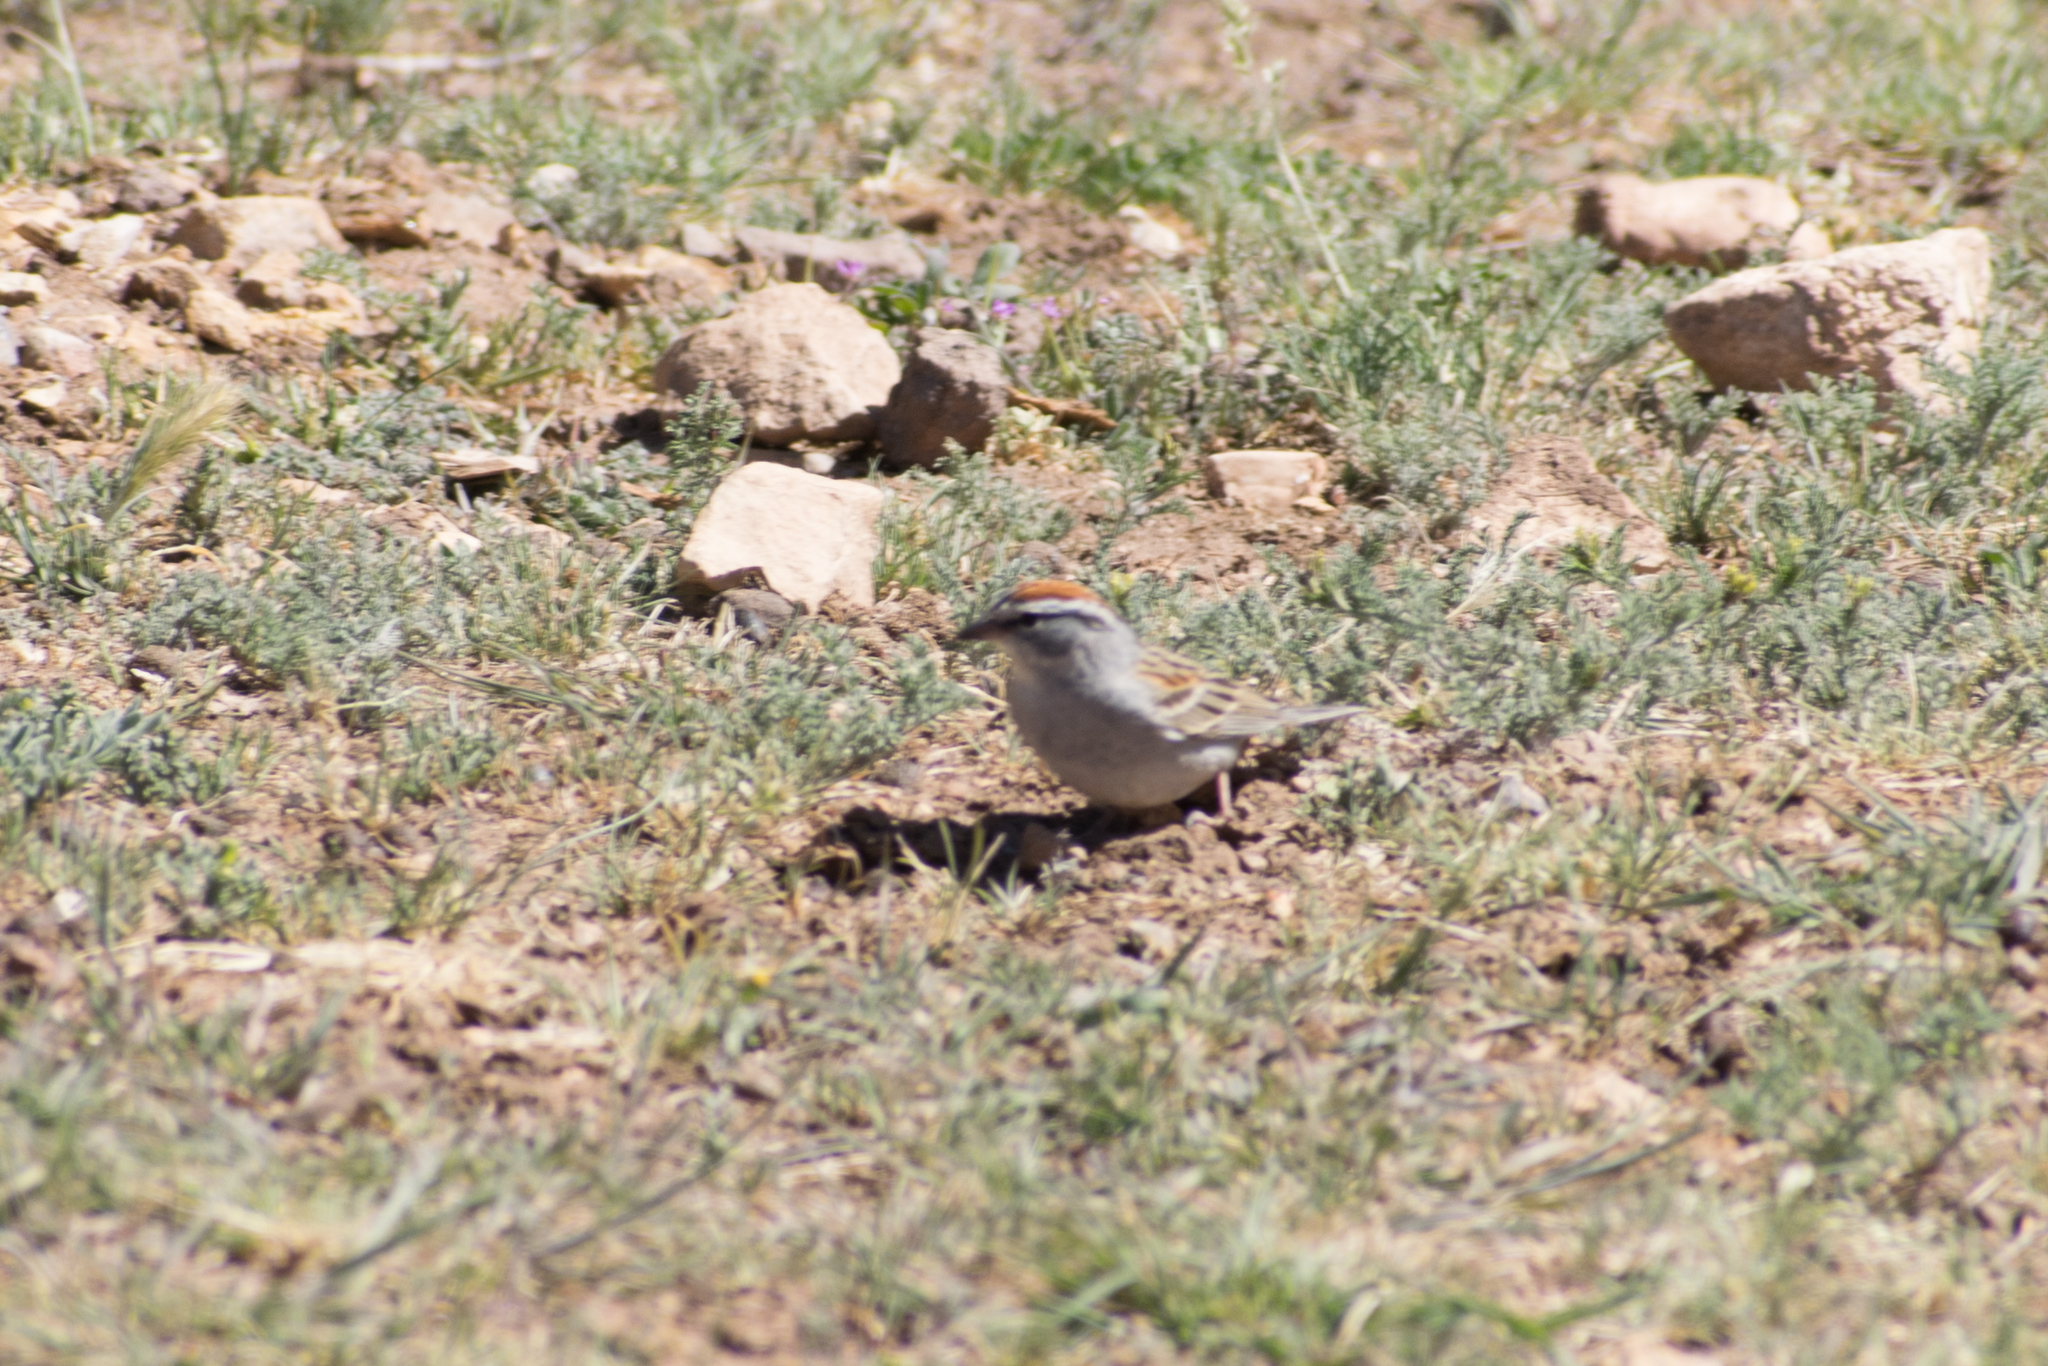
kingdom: Animalia
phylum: Chordata
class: Aves
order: Passeriformes
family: Passerellidae
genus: Spizella
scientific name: Spizella passerina
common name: Chipping sparrow
